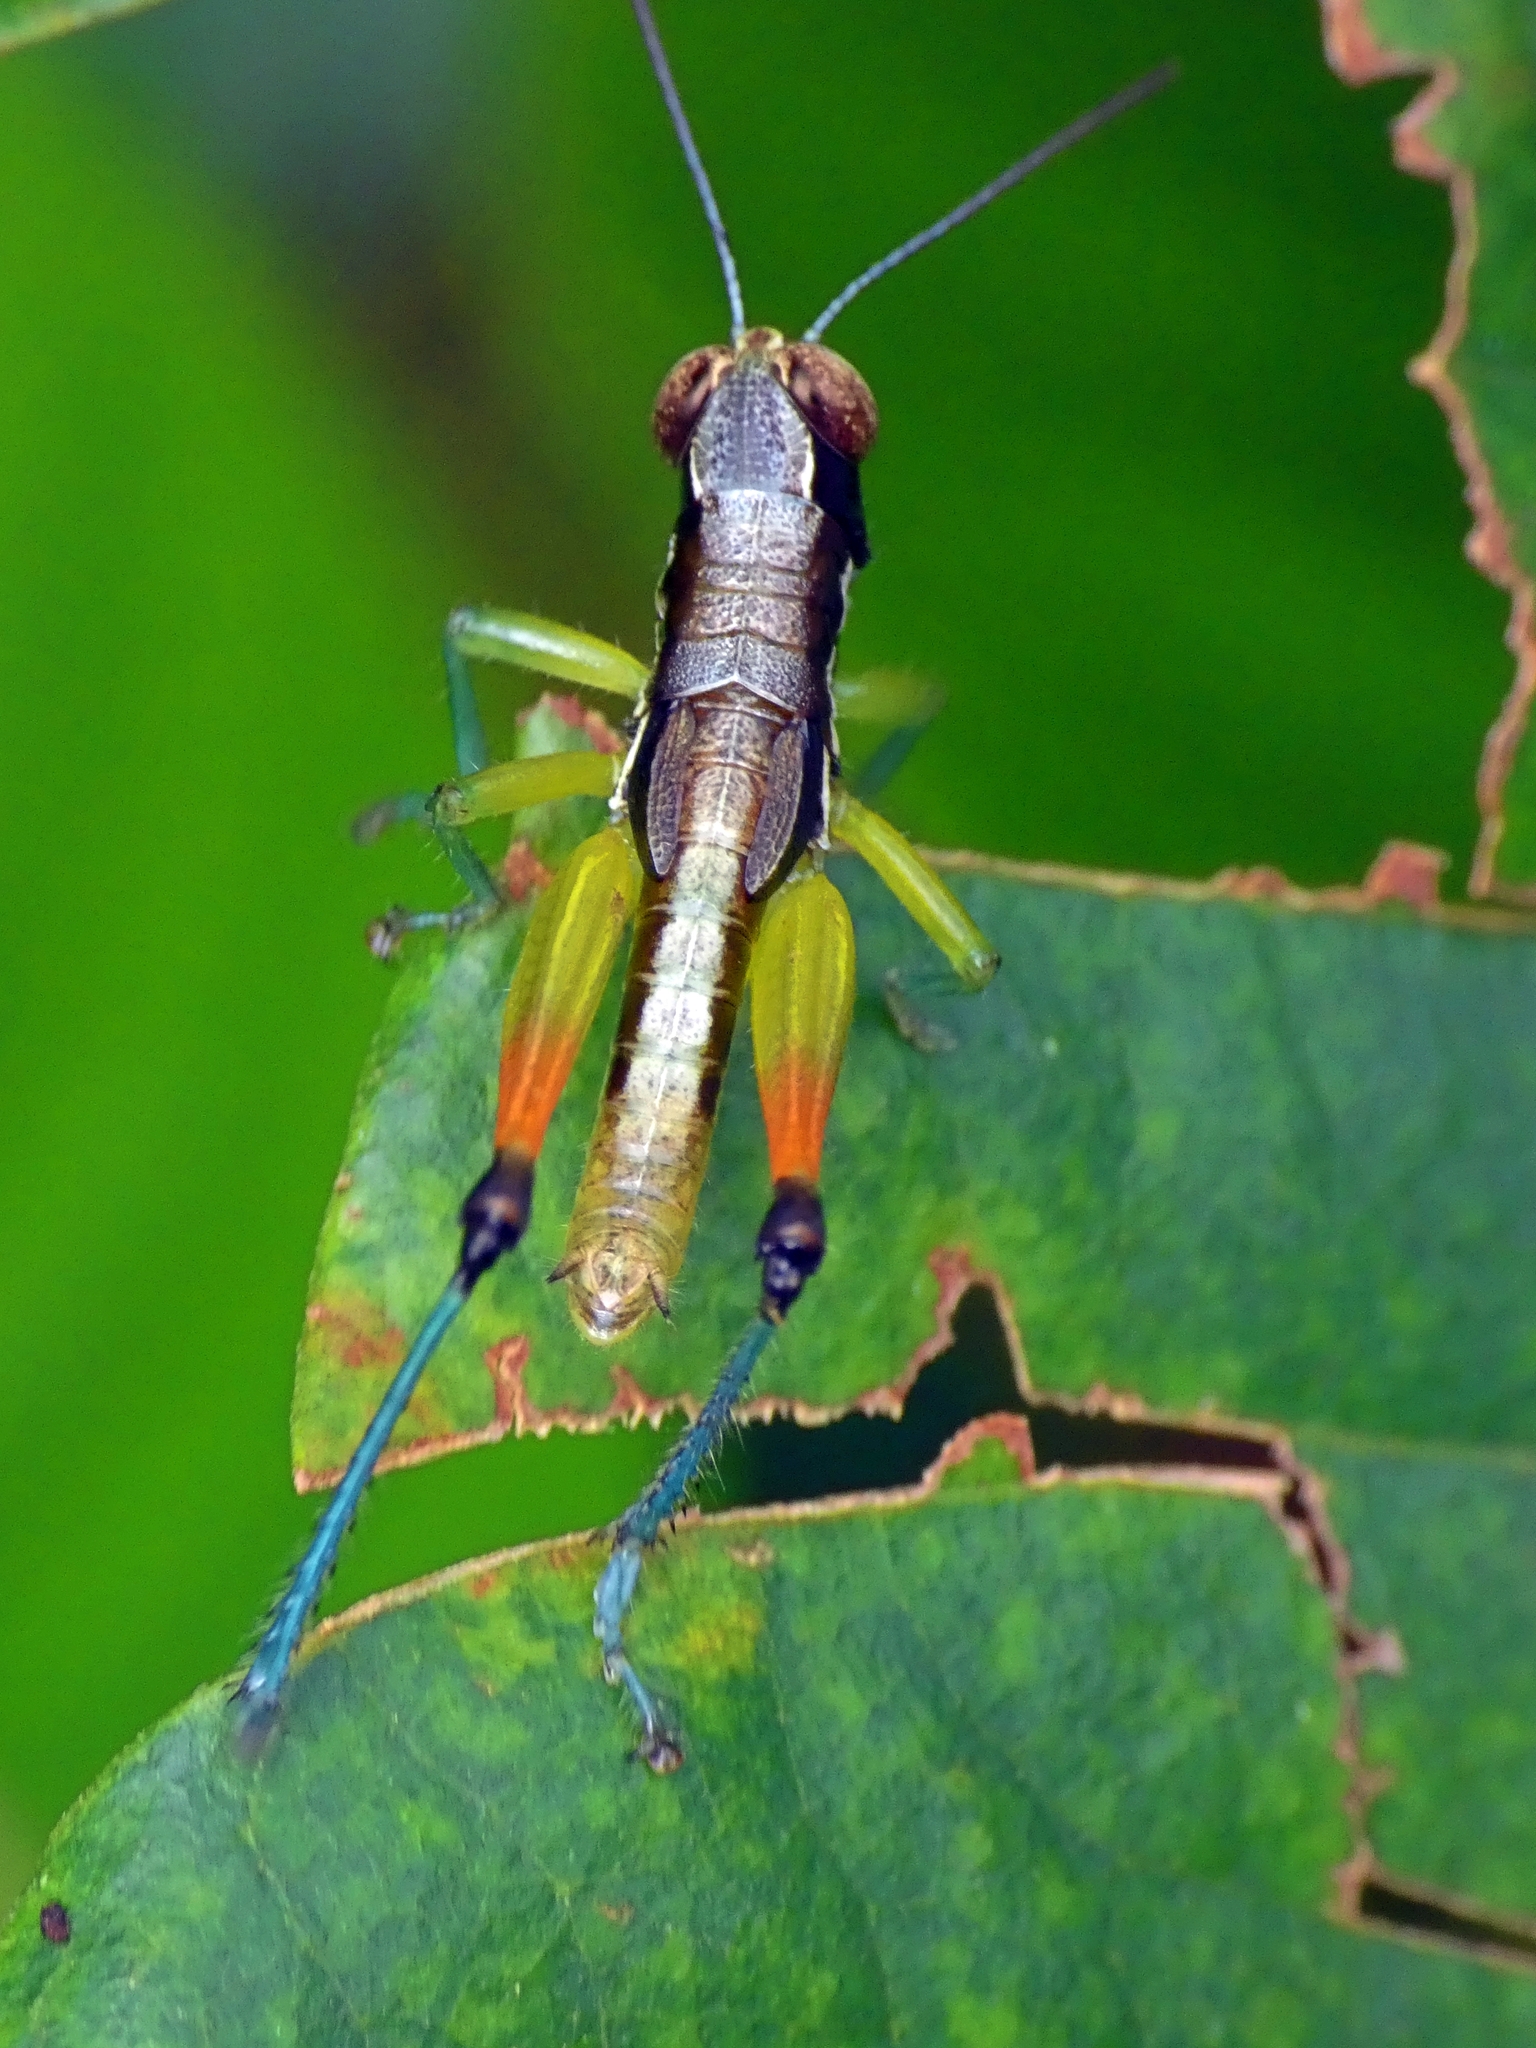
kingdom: Animalia
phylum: Arthropoda
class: Insecta
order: Orthoptera
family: Acrididae
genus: Methiola
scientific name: Methiola picta
